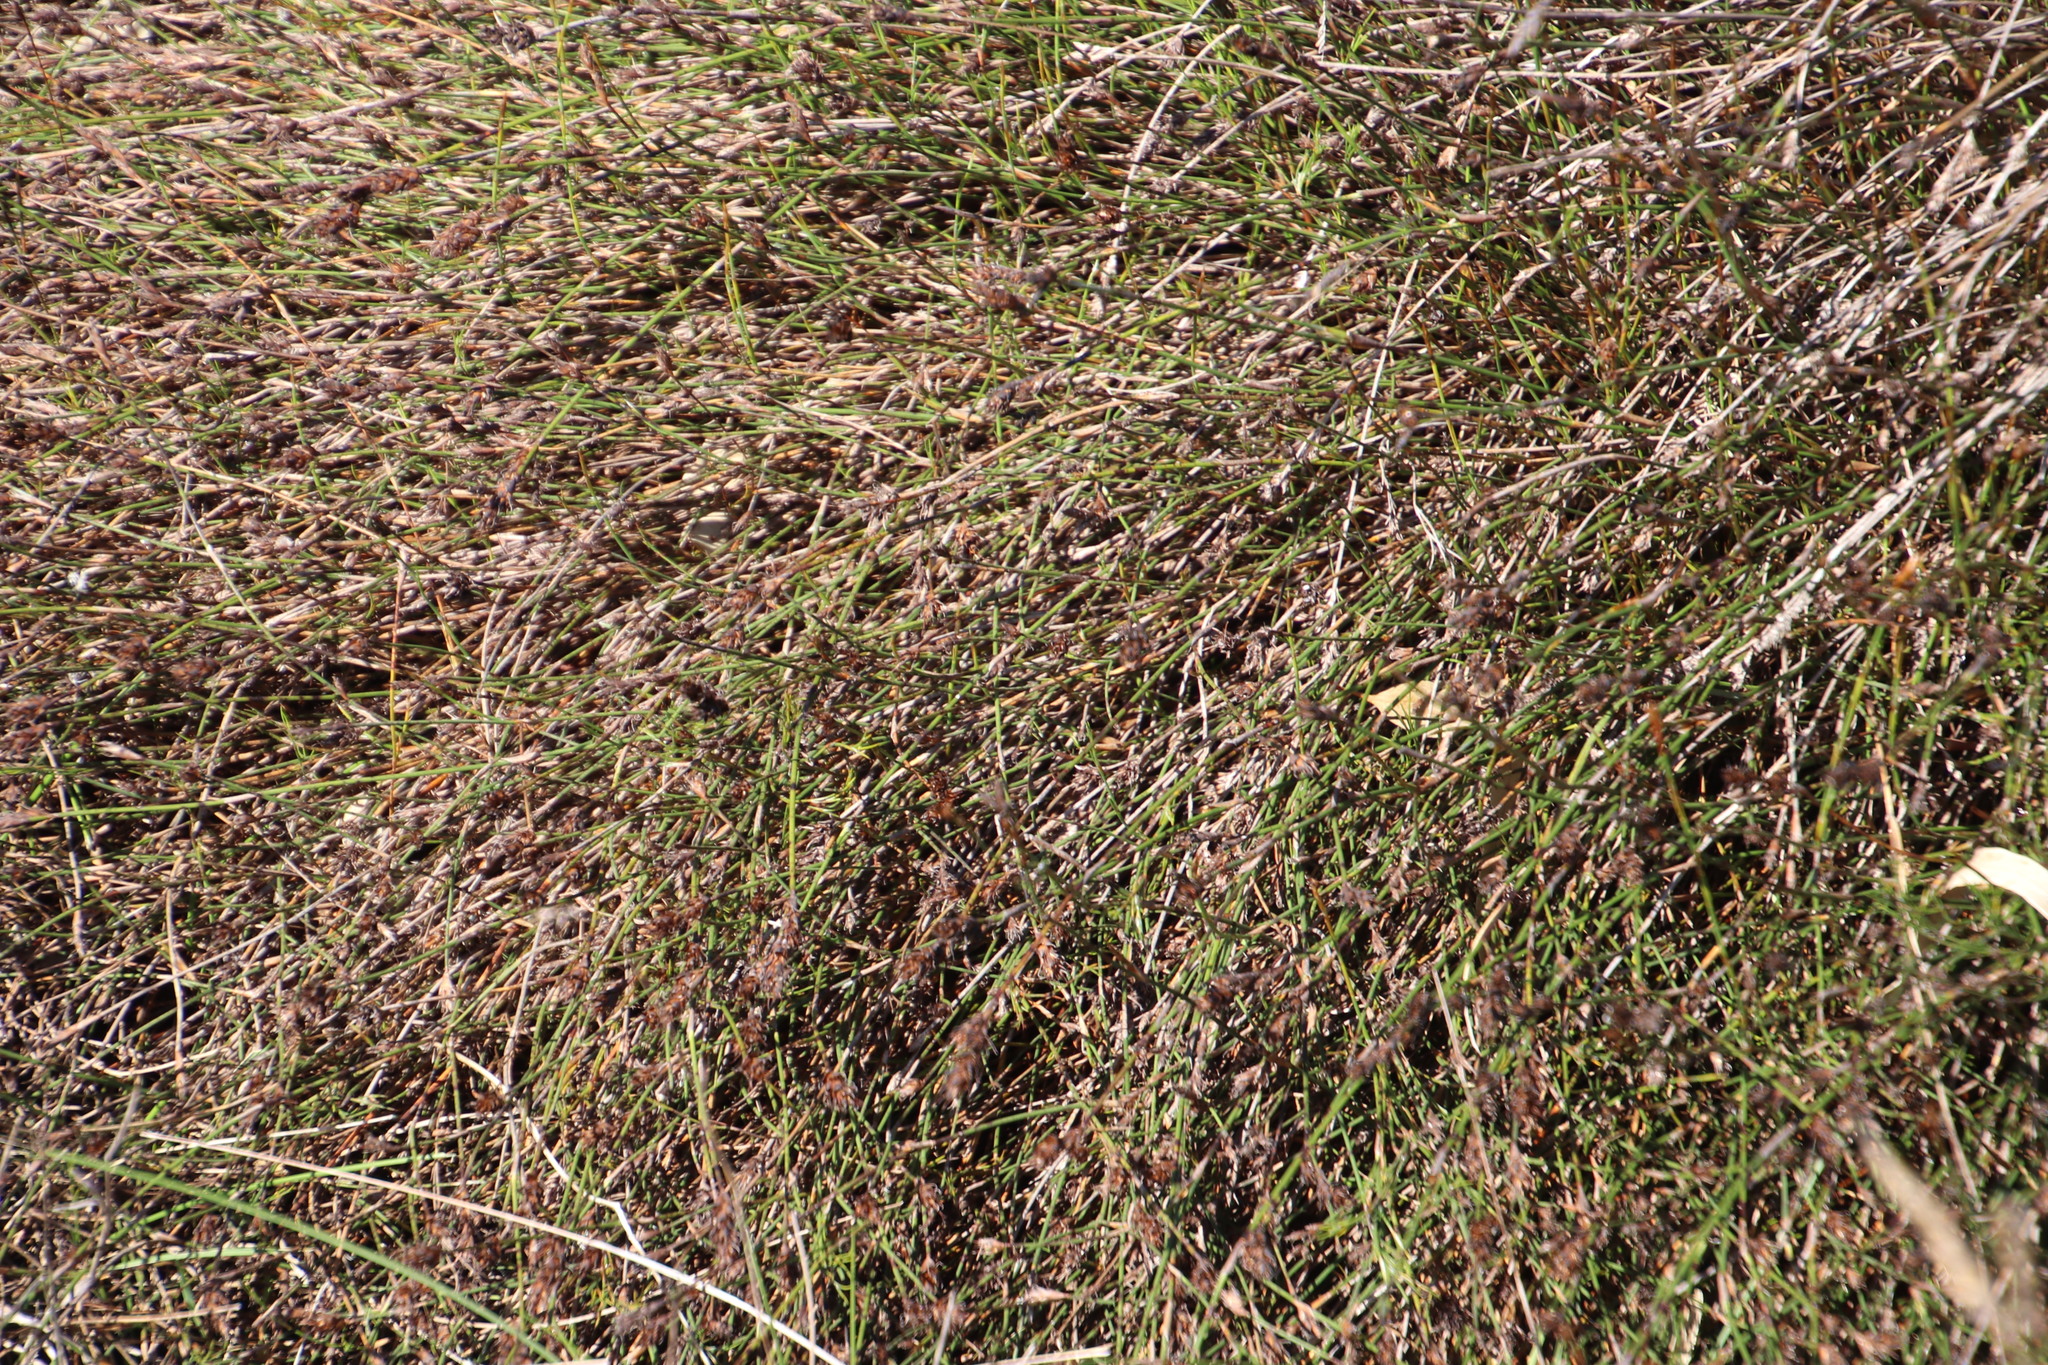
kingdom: Plantae
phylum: Tracheophyta
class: Liliopsida
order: Poales
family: Restionaceae
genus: Restio
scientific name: Restio capensis
